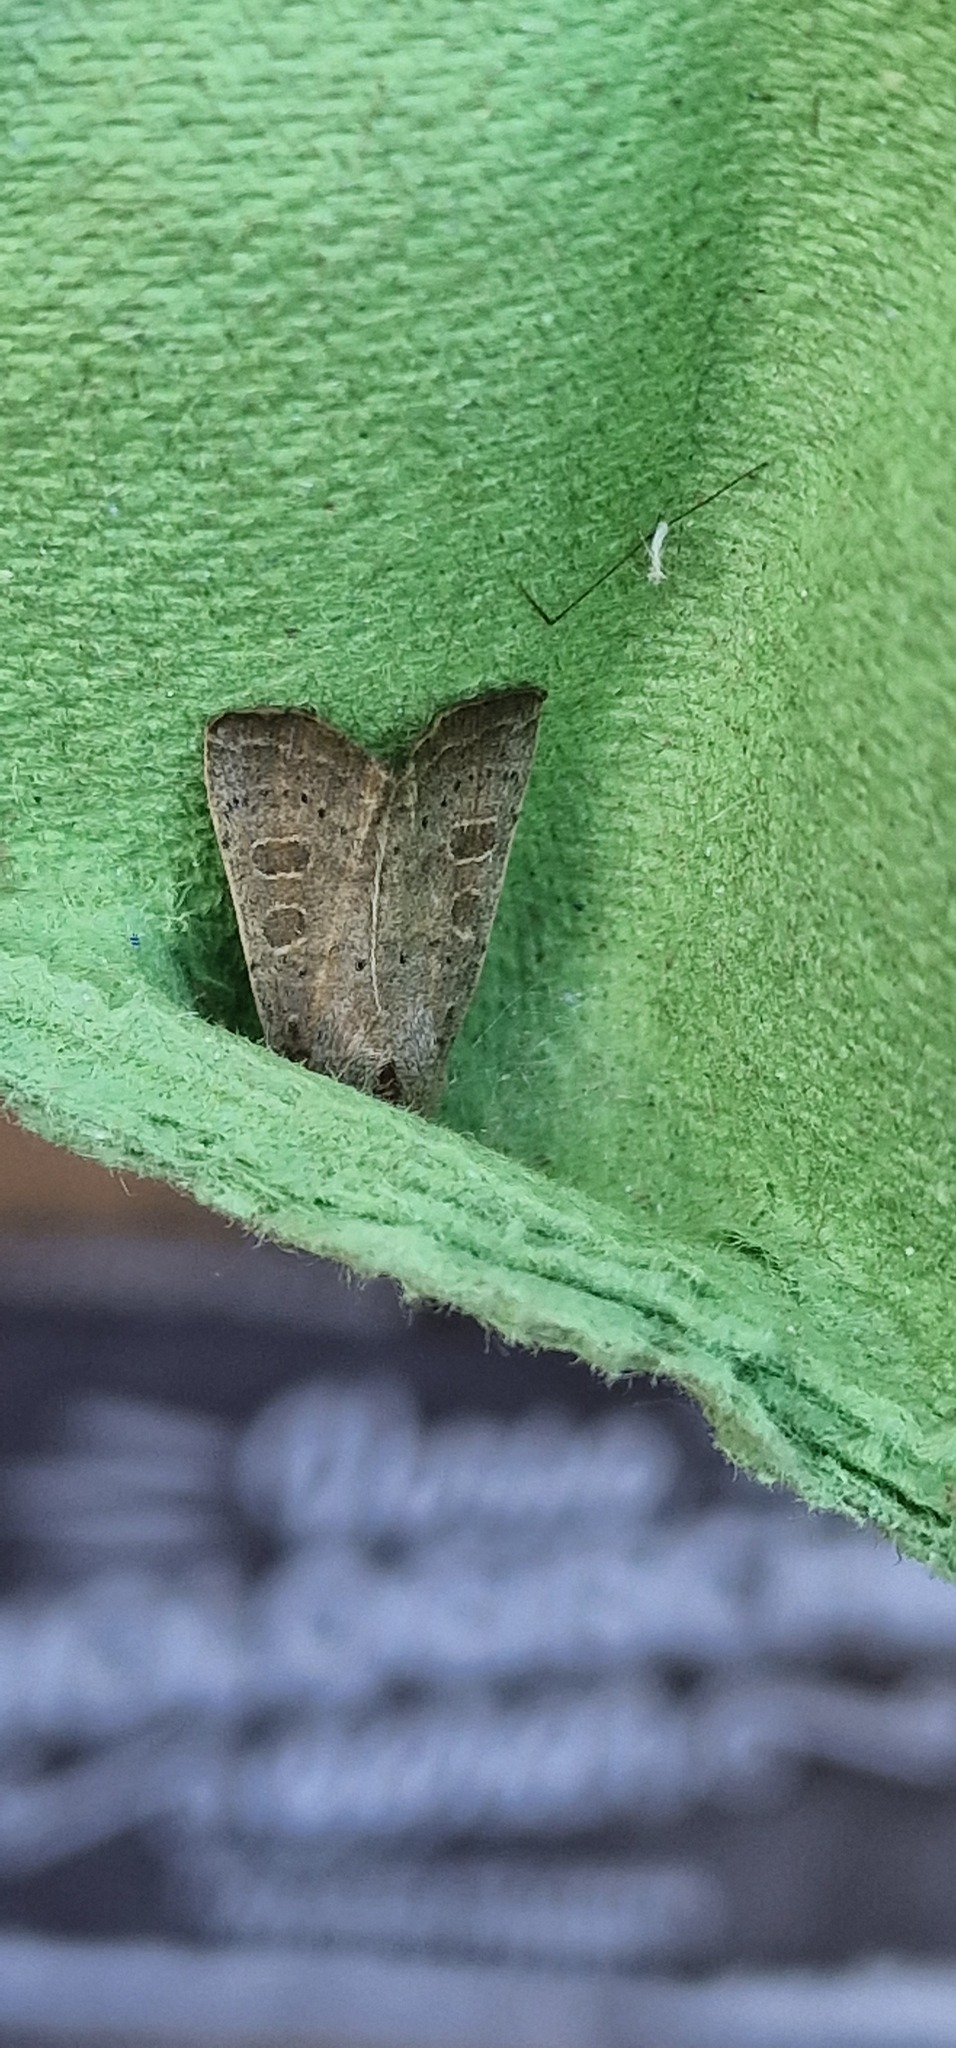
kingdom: Animalia
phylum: Arthropoda
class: Insecta
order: Lepidoptera
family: Noctuidae
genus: Hoplodrina
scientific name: Hoplodrina ambigua
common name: Vine's rustic
